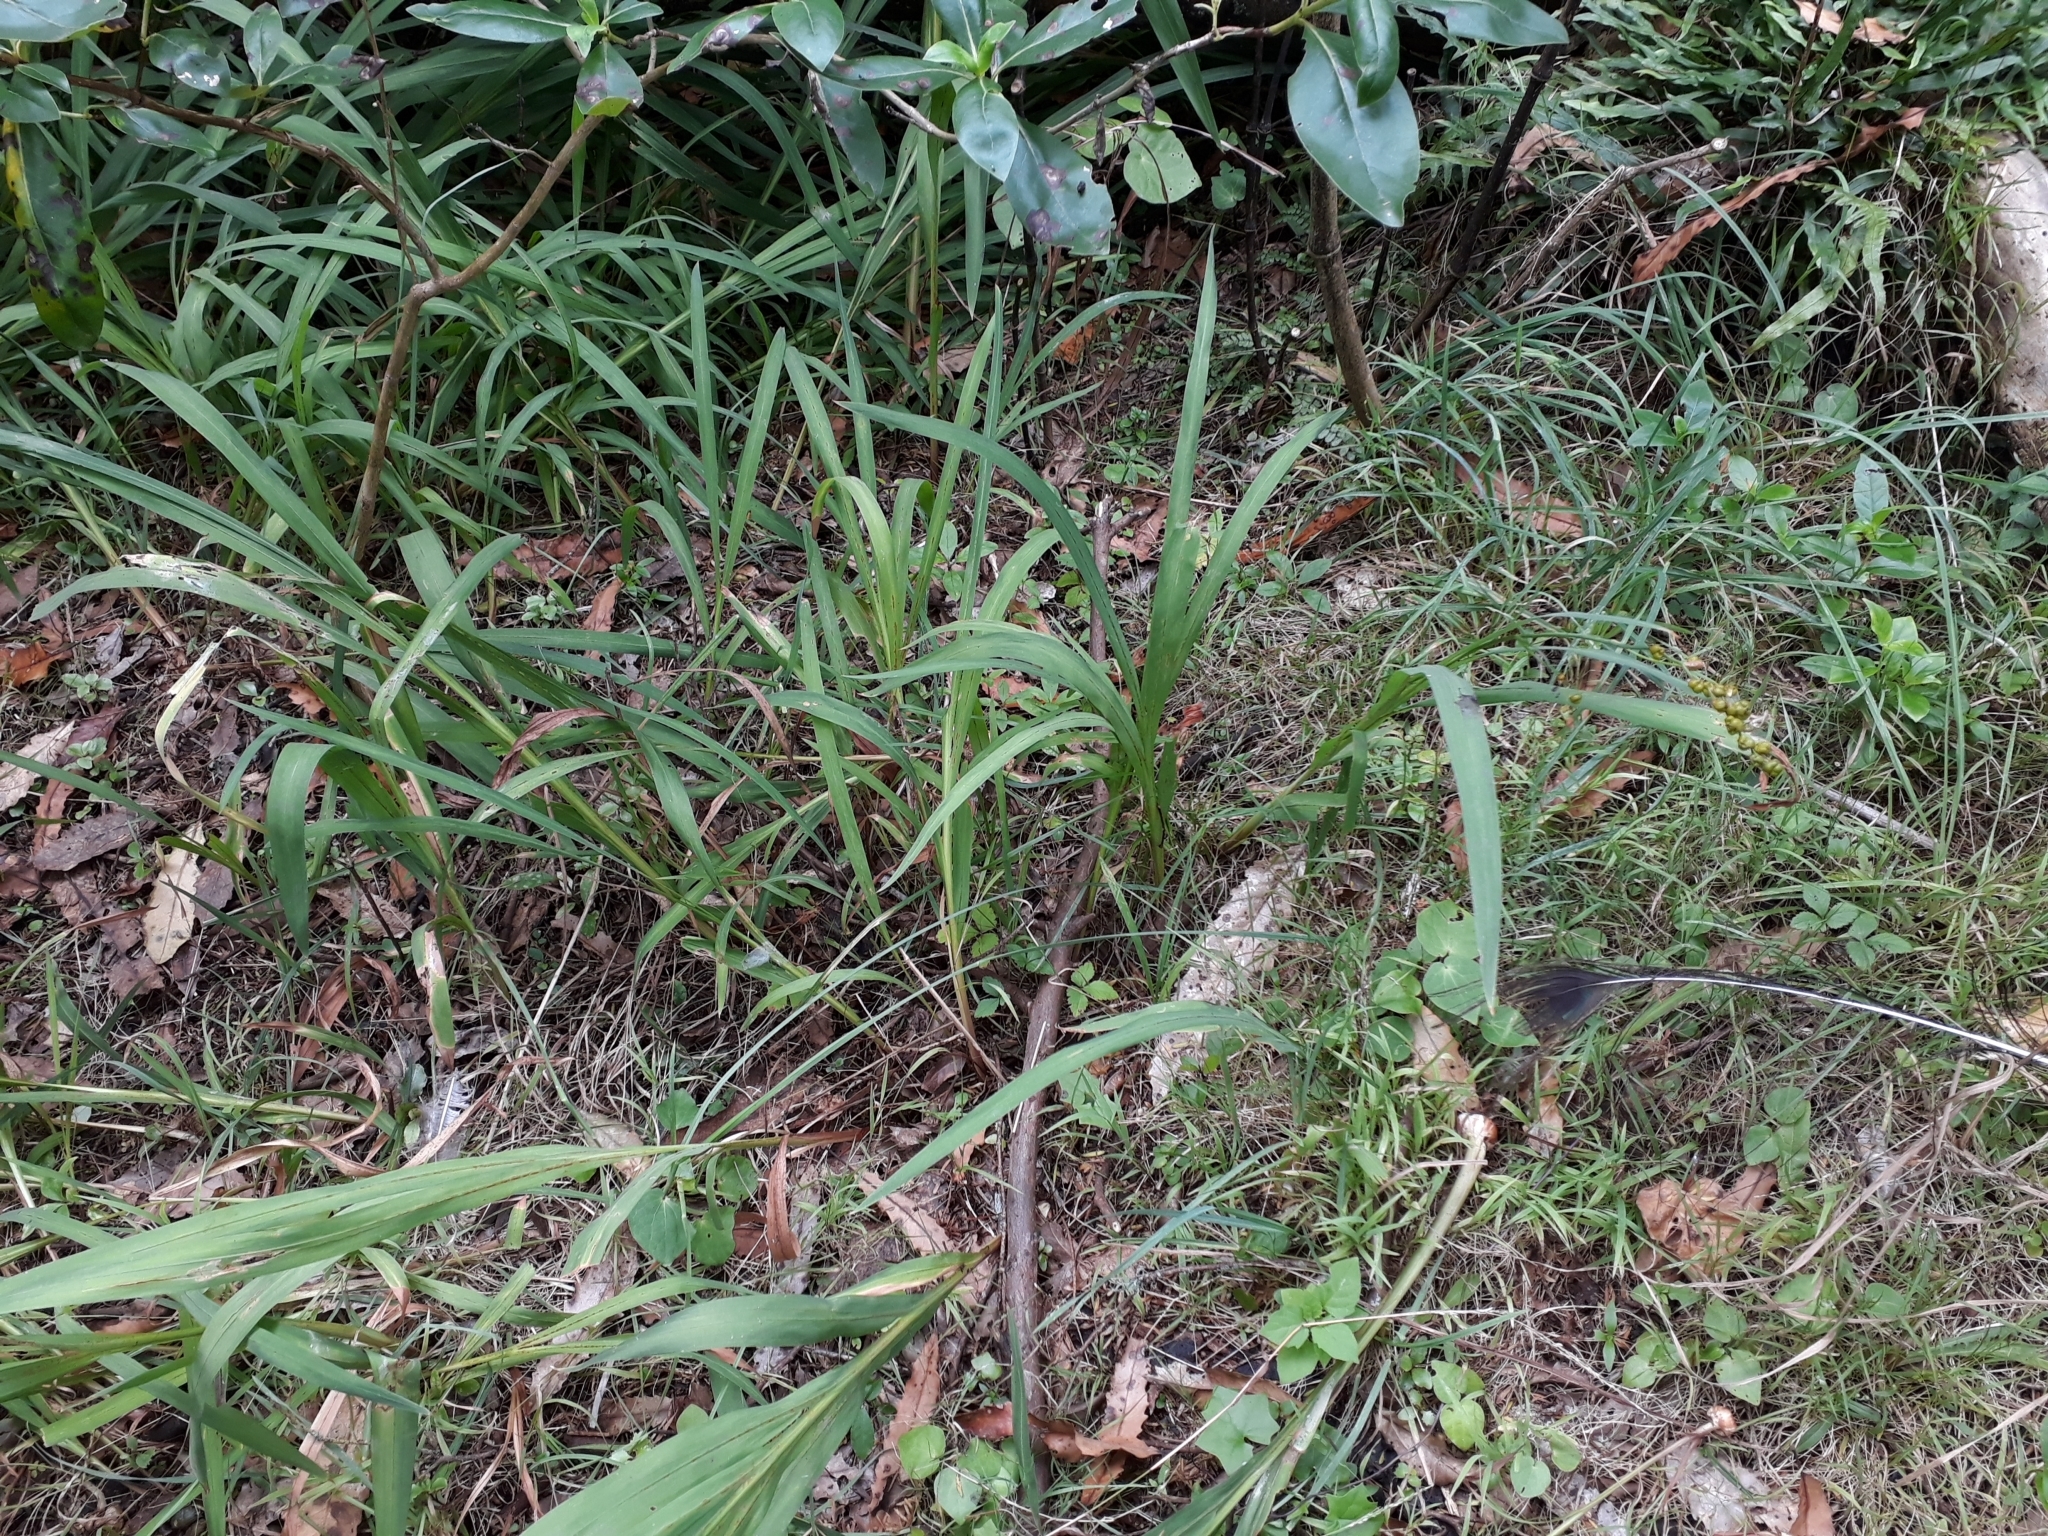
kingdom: Plantae
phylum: Tracheophyta
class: Magnoliopsida
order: Asterales
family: Asteraceae
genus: Delairea
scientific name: Delairea odorata
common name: Cape-ivy
